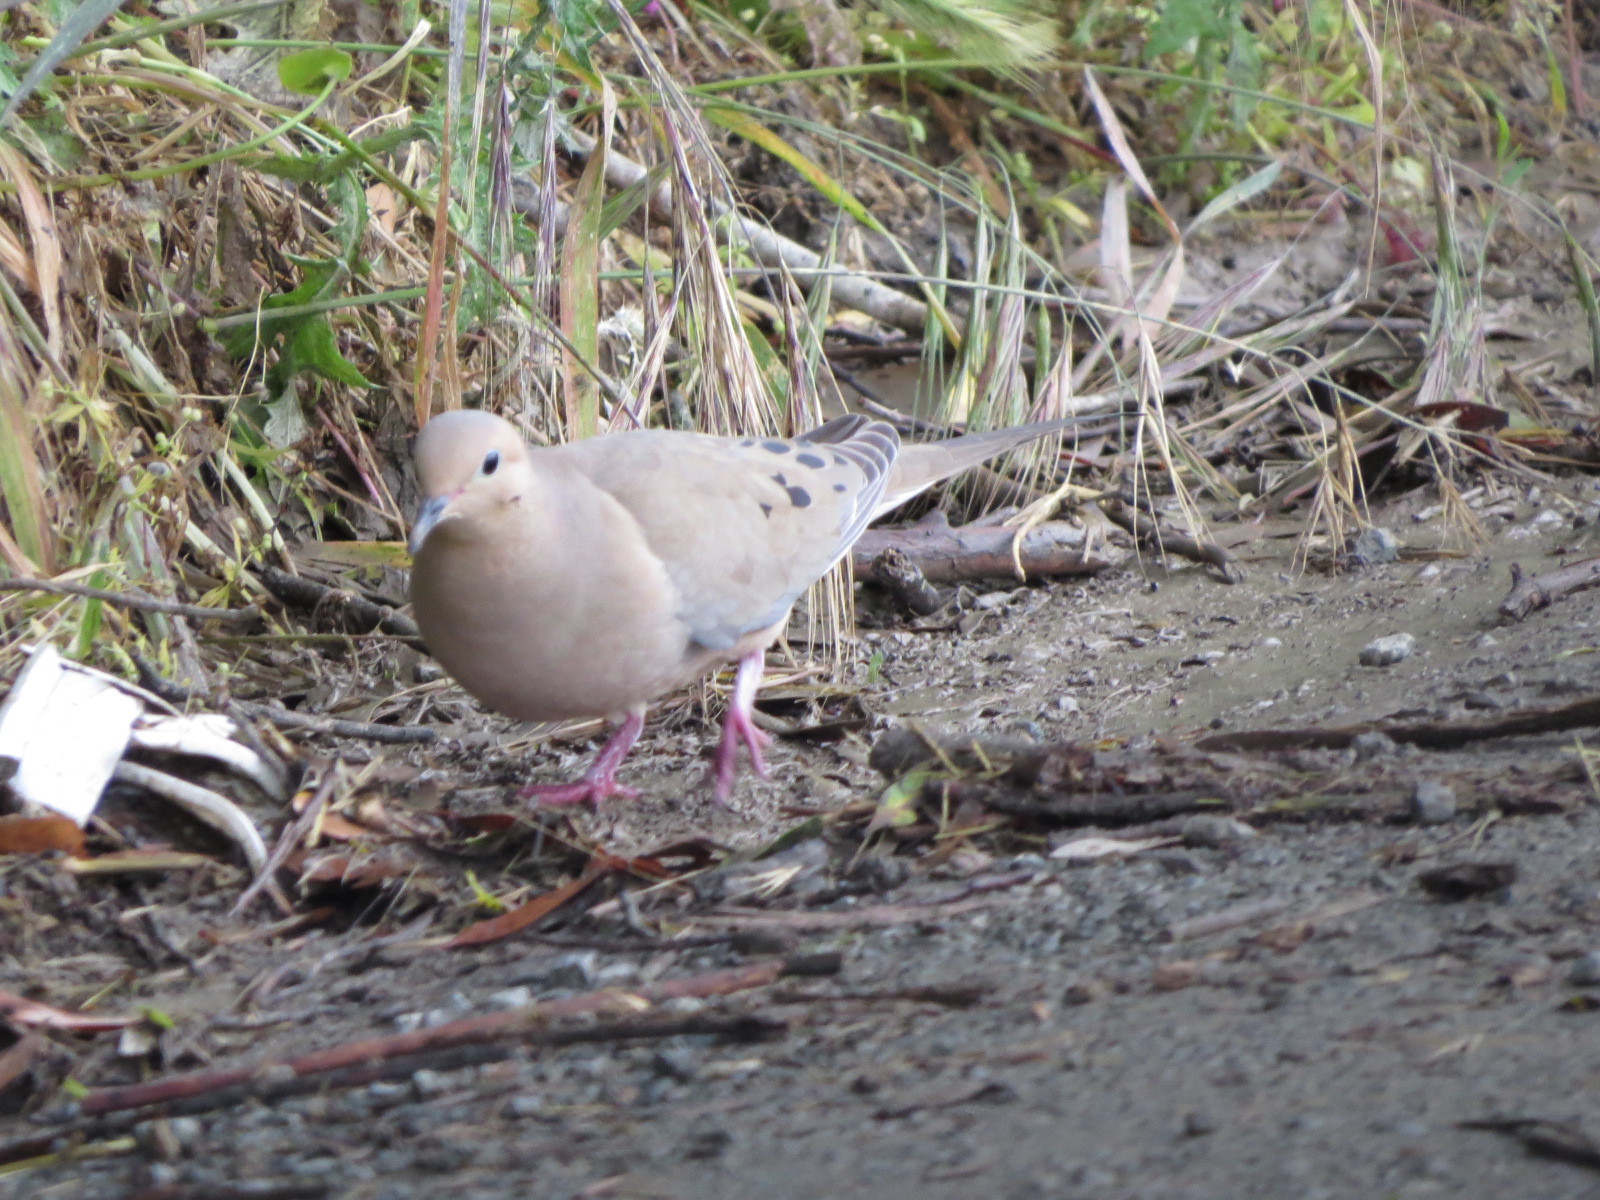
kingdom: Animalia
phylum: Chordata
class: Aves
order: Columbiformes
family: Columbidae
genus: Zenaida
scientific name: Zenaida macroura
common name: Mourning dove
